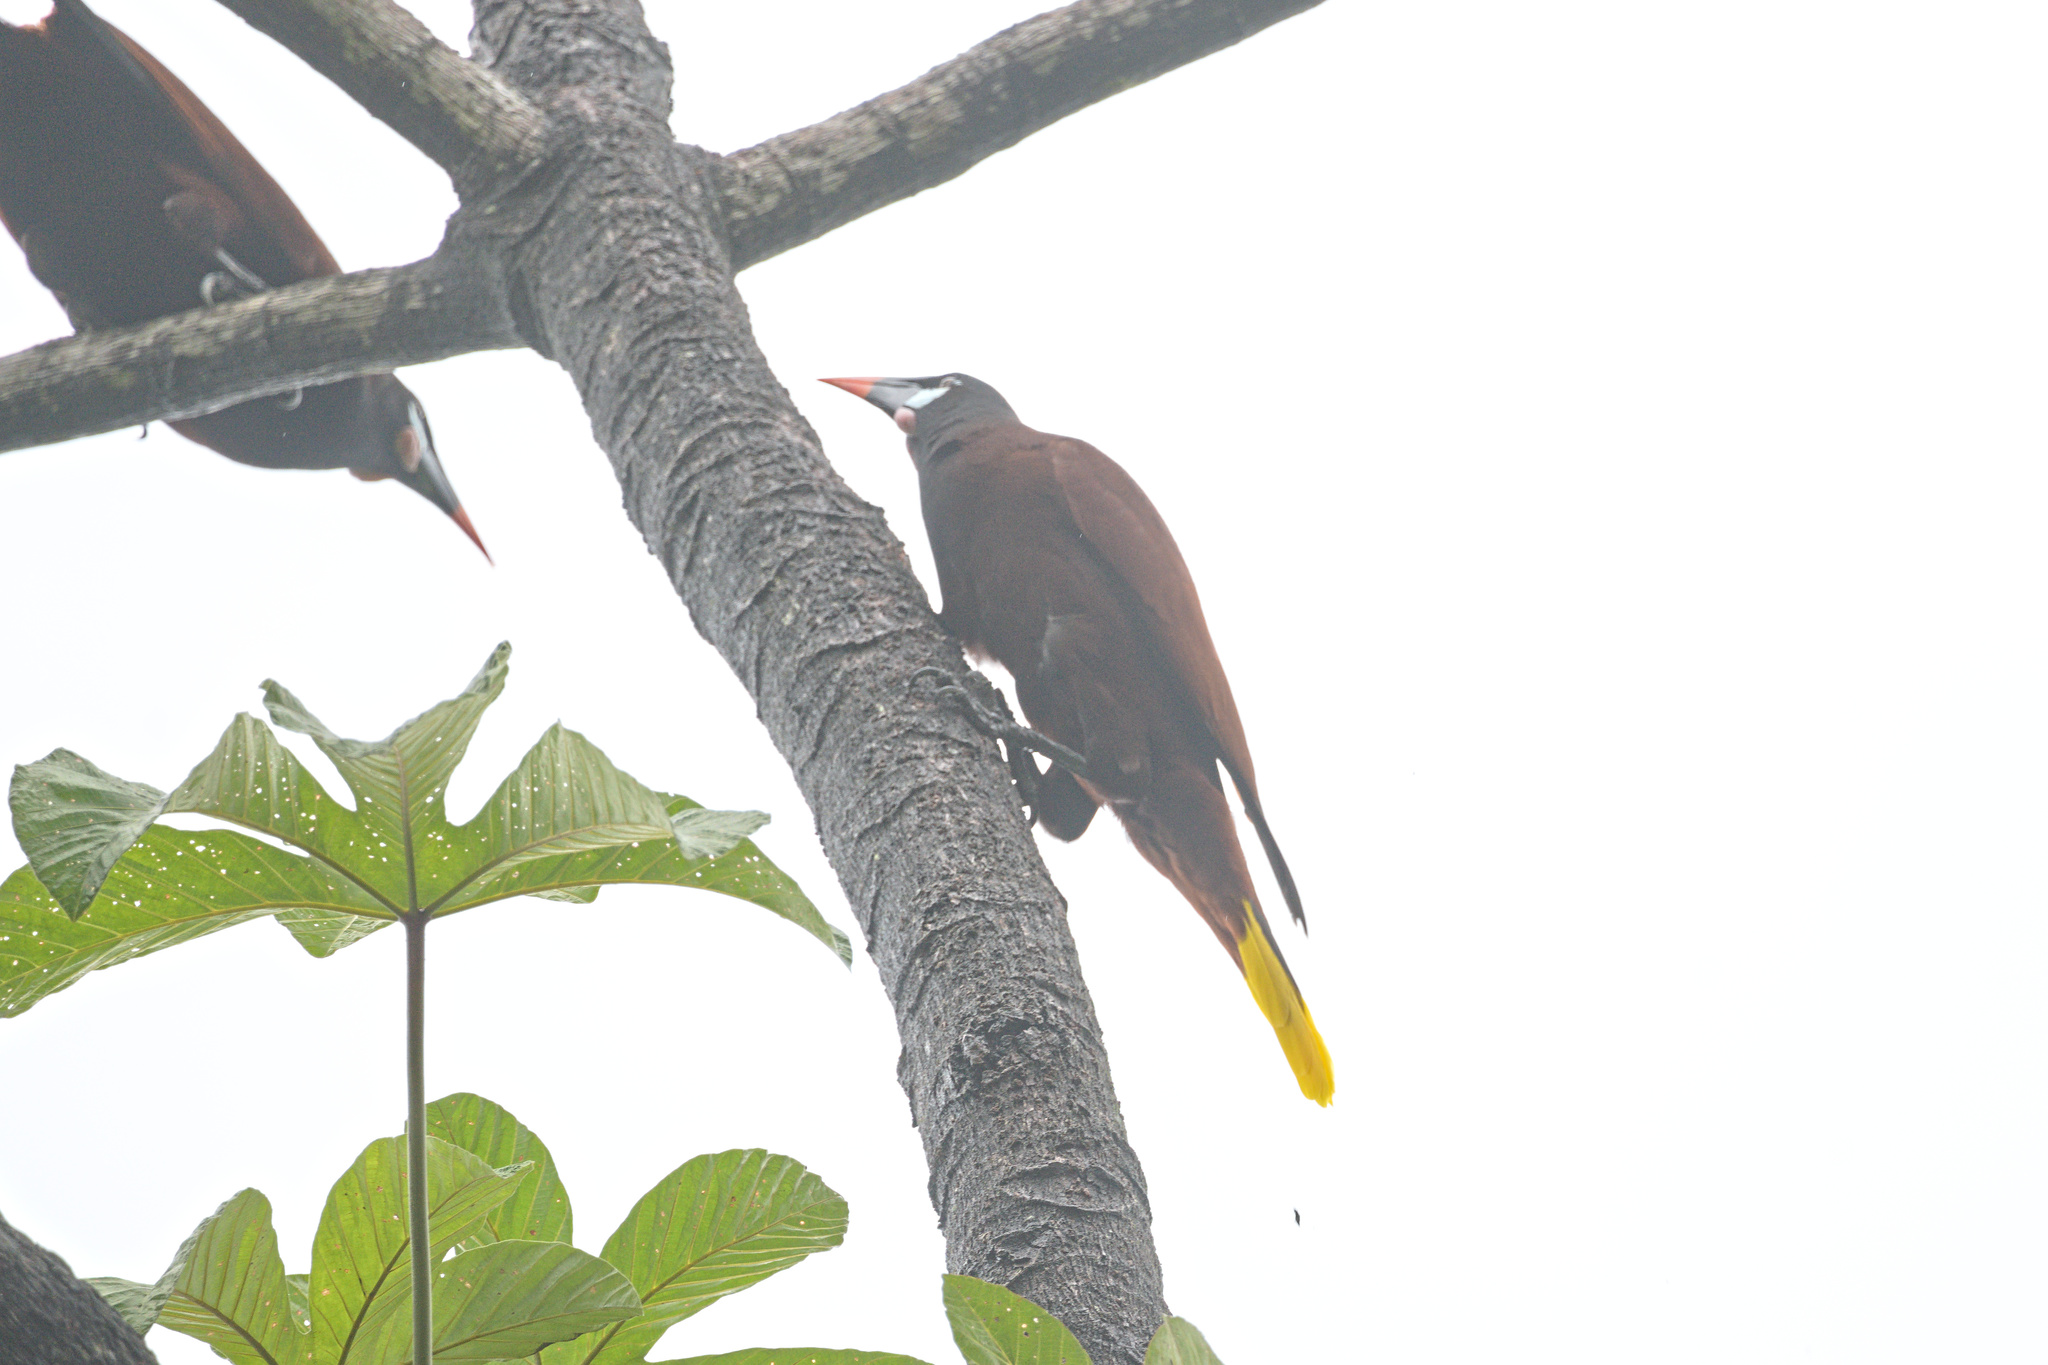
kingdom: Animalia
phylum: Chordata
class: Aves
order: Passeriformes
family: Icteridae
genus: Psarocolius
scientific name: Psarocolius montezuma
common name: Montezuma oropendola
